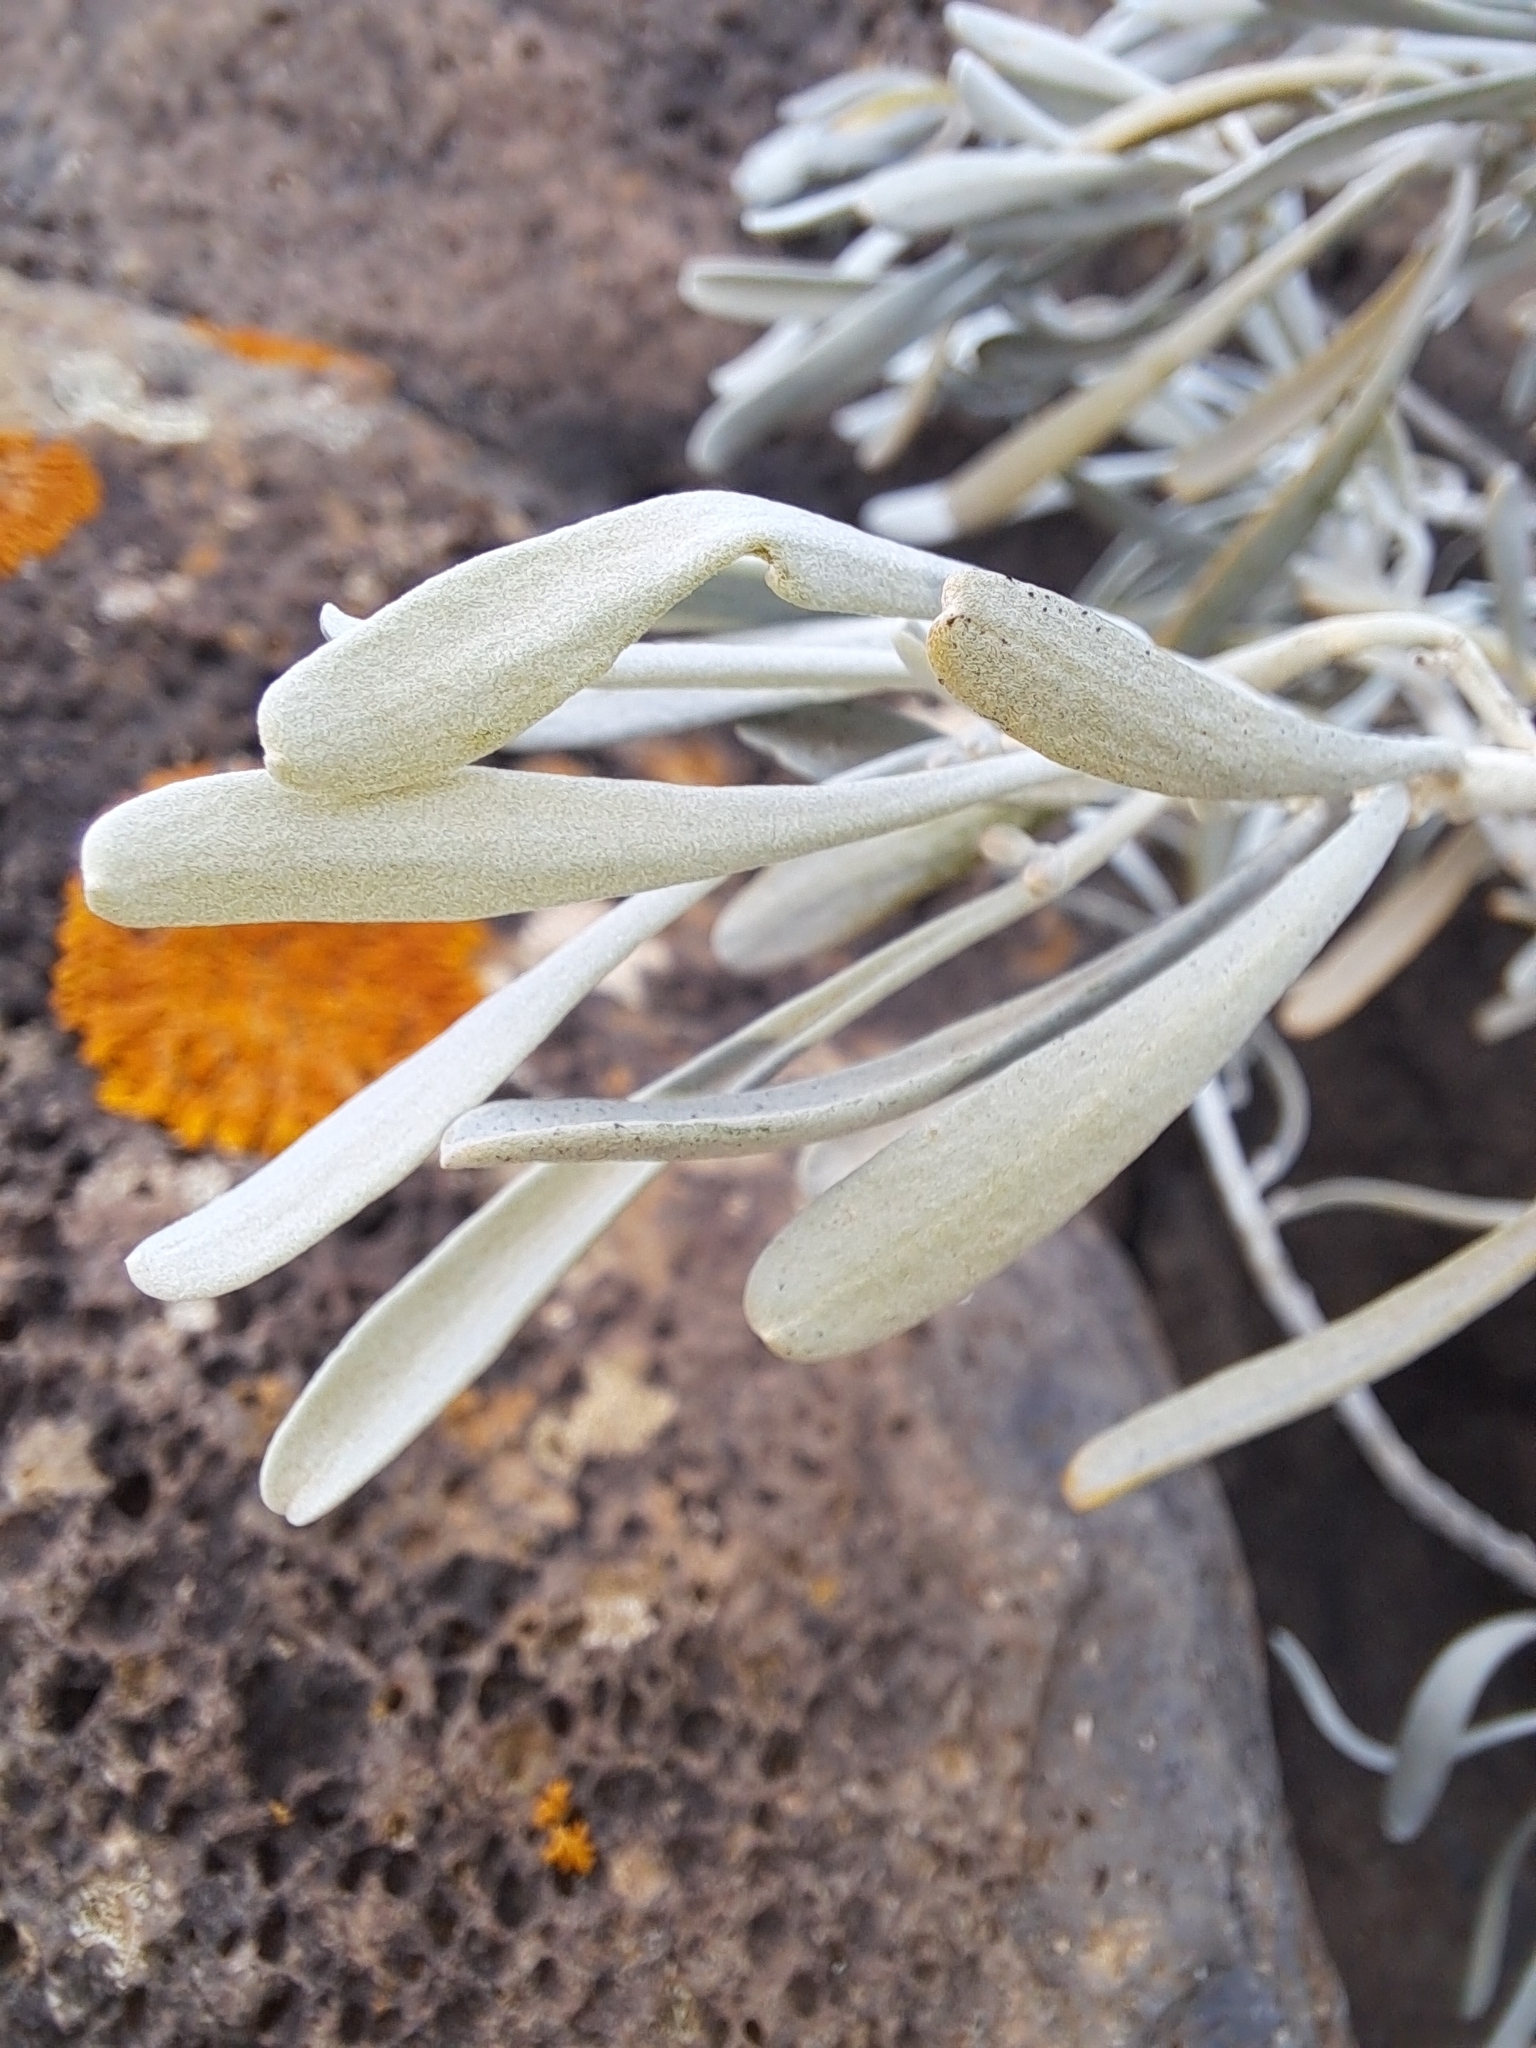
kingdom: Plantae
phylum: Tracheophyta
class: Magnoliopsida
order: Sapindales
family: Rutaceae
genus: Cneorum
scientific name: Cneorum pulverulentum
